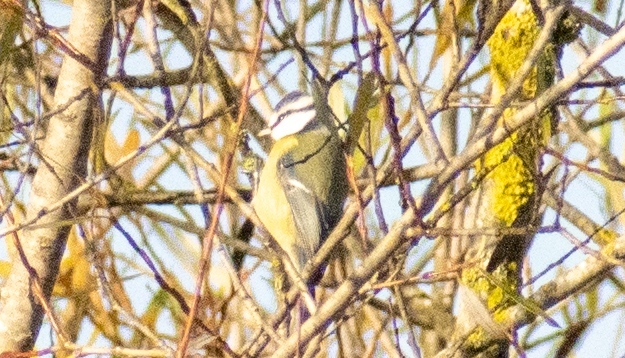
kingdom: Animalia
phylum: Chordata
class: Aves
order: Passeriformes
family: Paridae
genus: Cyanistes
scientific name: Cyanistes caeruleus
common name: Eurasian blue tit
